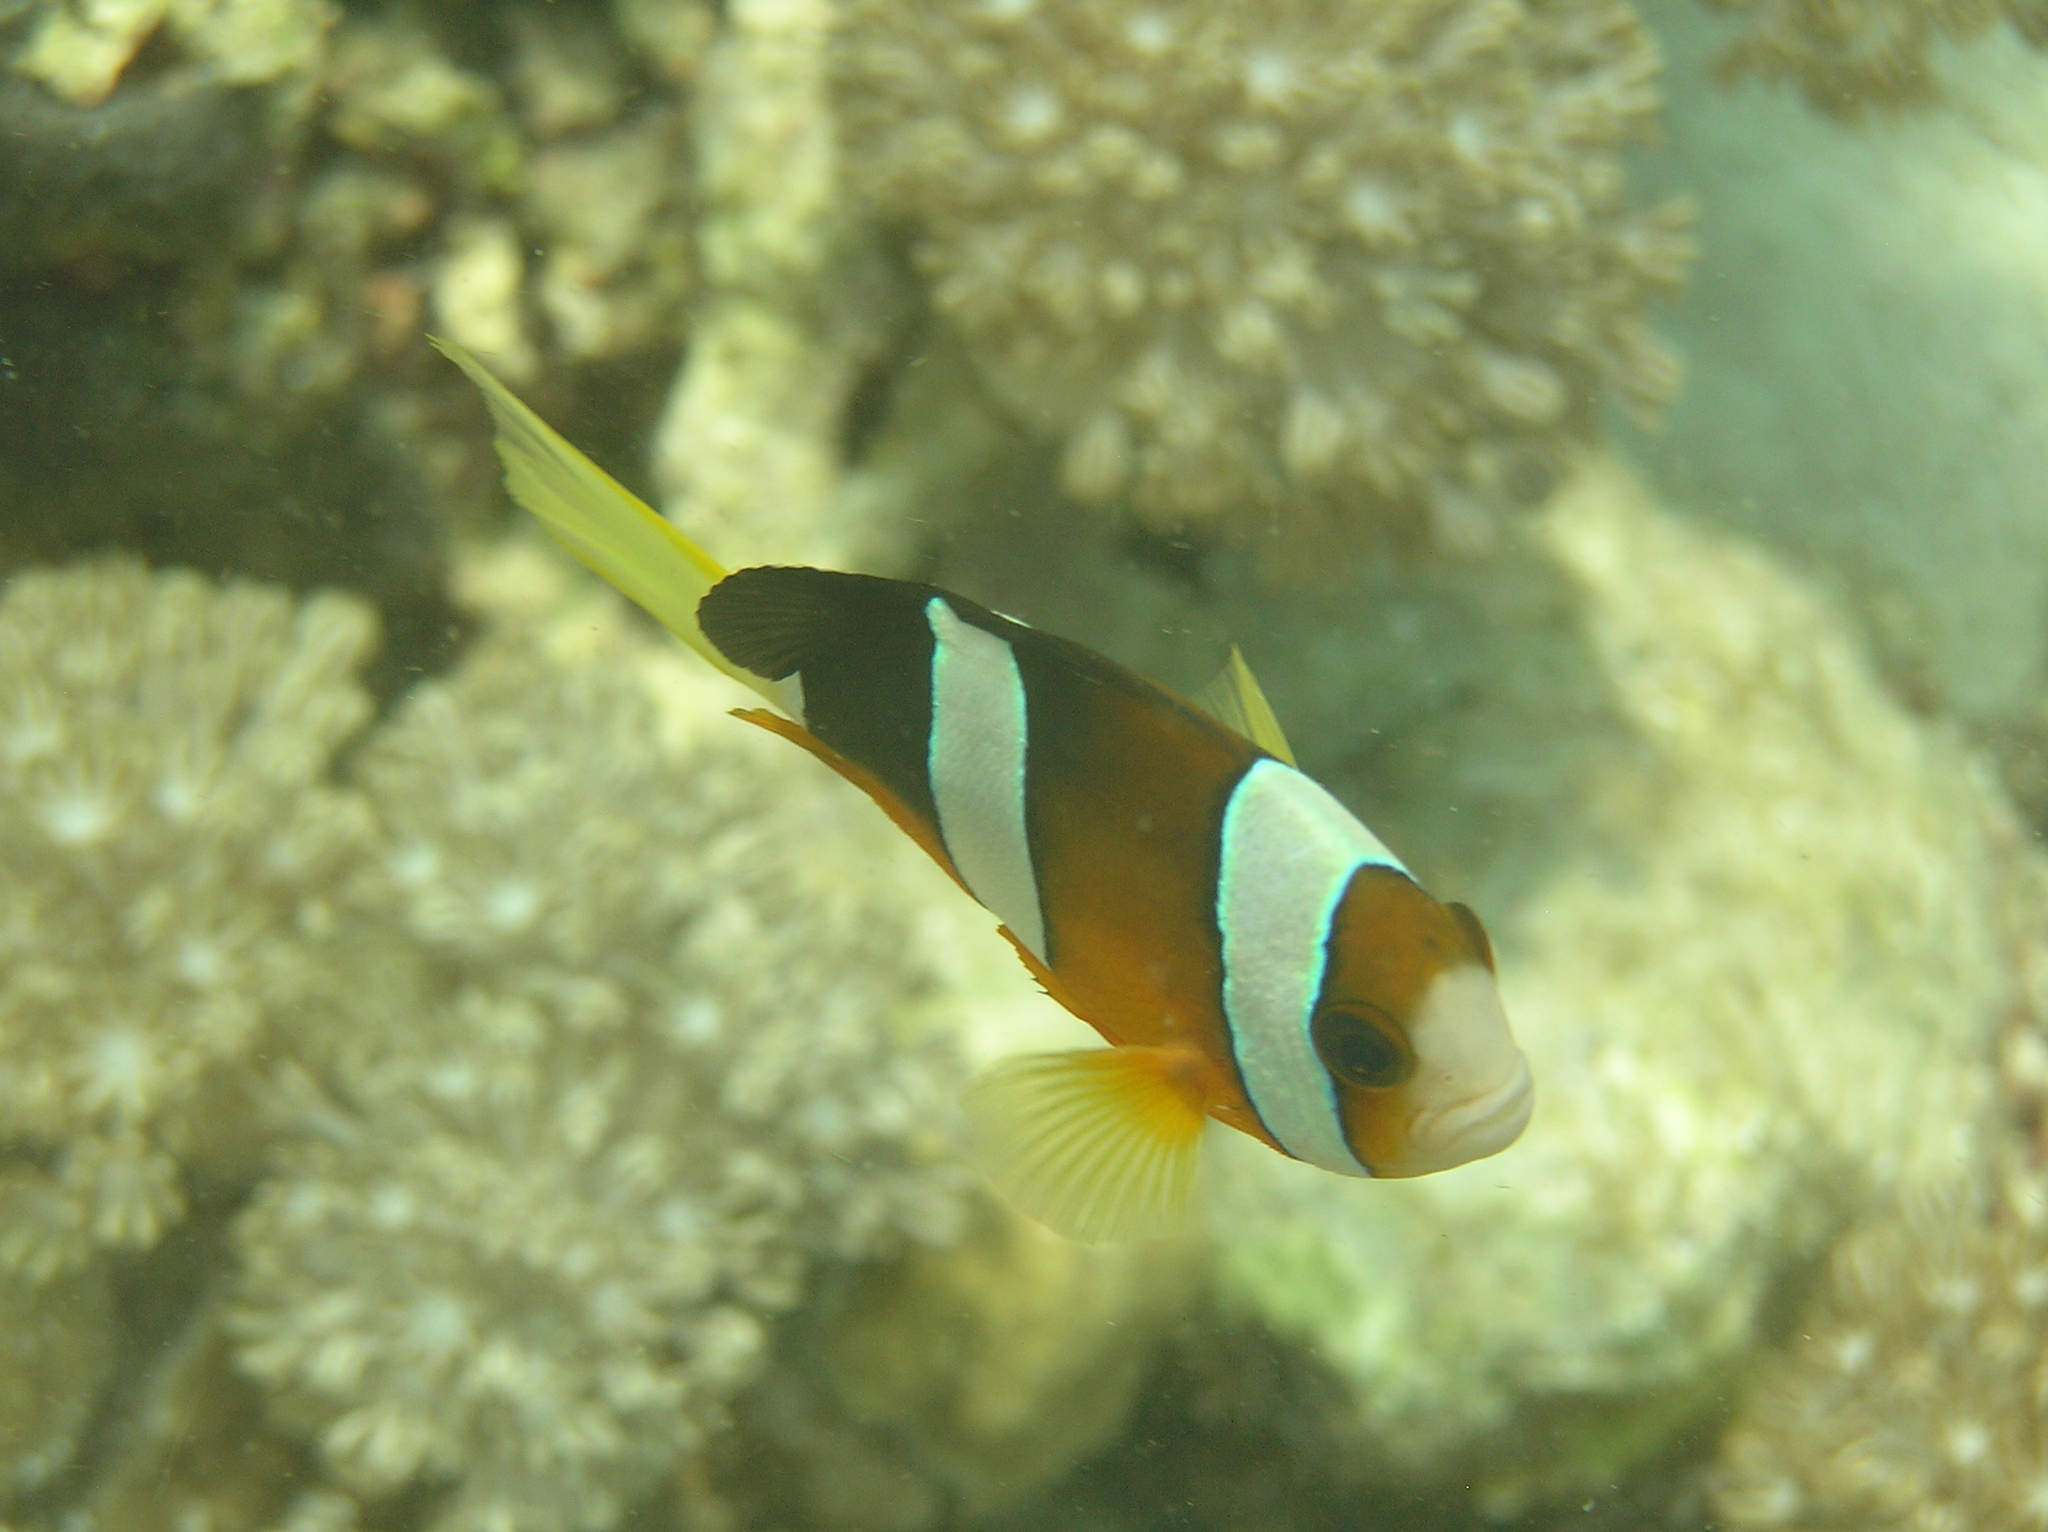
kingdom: Animalia
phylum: Chordata
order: Perciformes
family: Pomacentridae
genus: Amphiprion
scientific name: Amphiprion clarkii
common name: Clark's anemonefish
